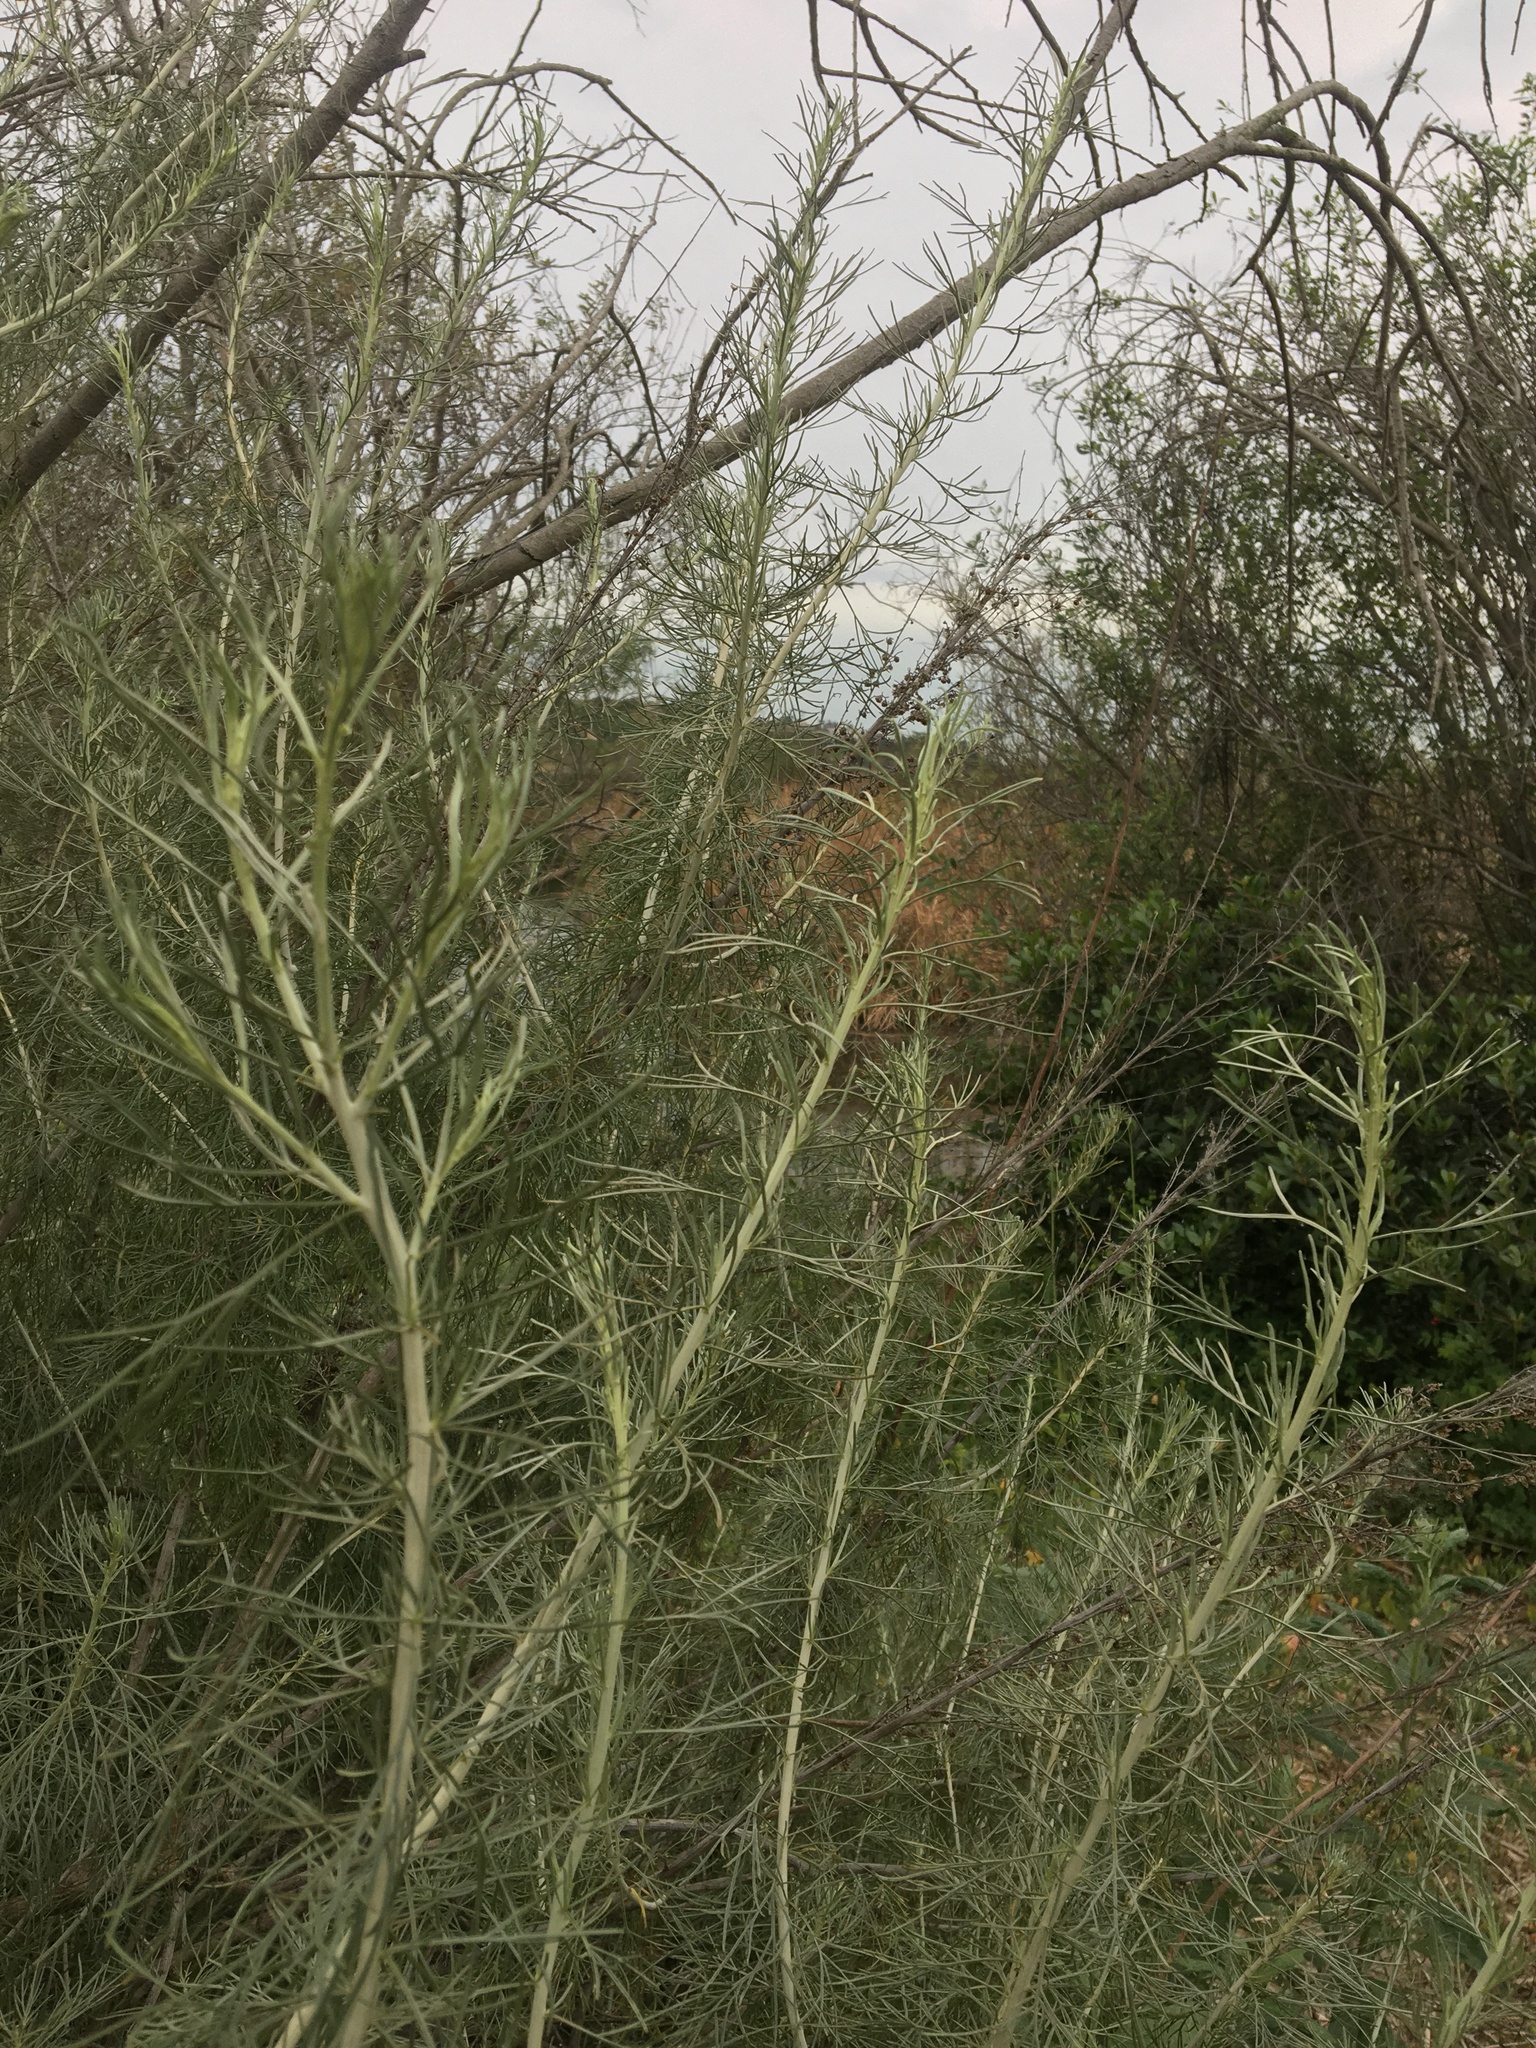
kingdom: Plantae
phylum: Tracheophyta
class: Magnoliopsida
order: Asterales
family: Asteraceae
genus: Artemisia
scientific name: Artemisia californica
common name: California sagebrush
